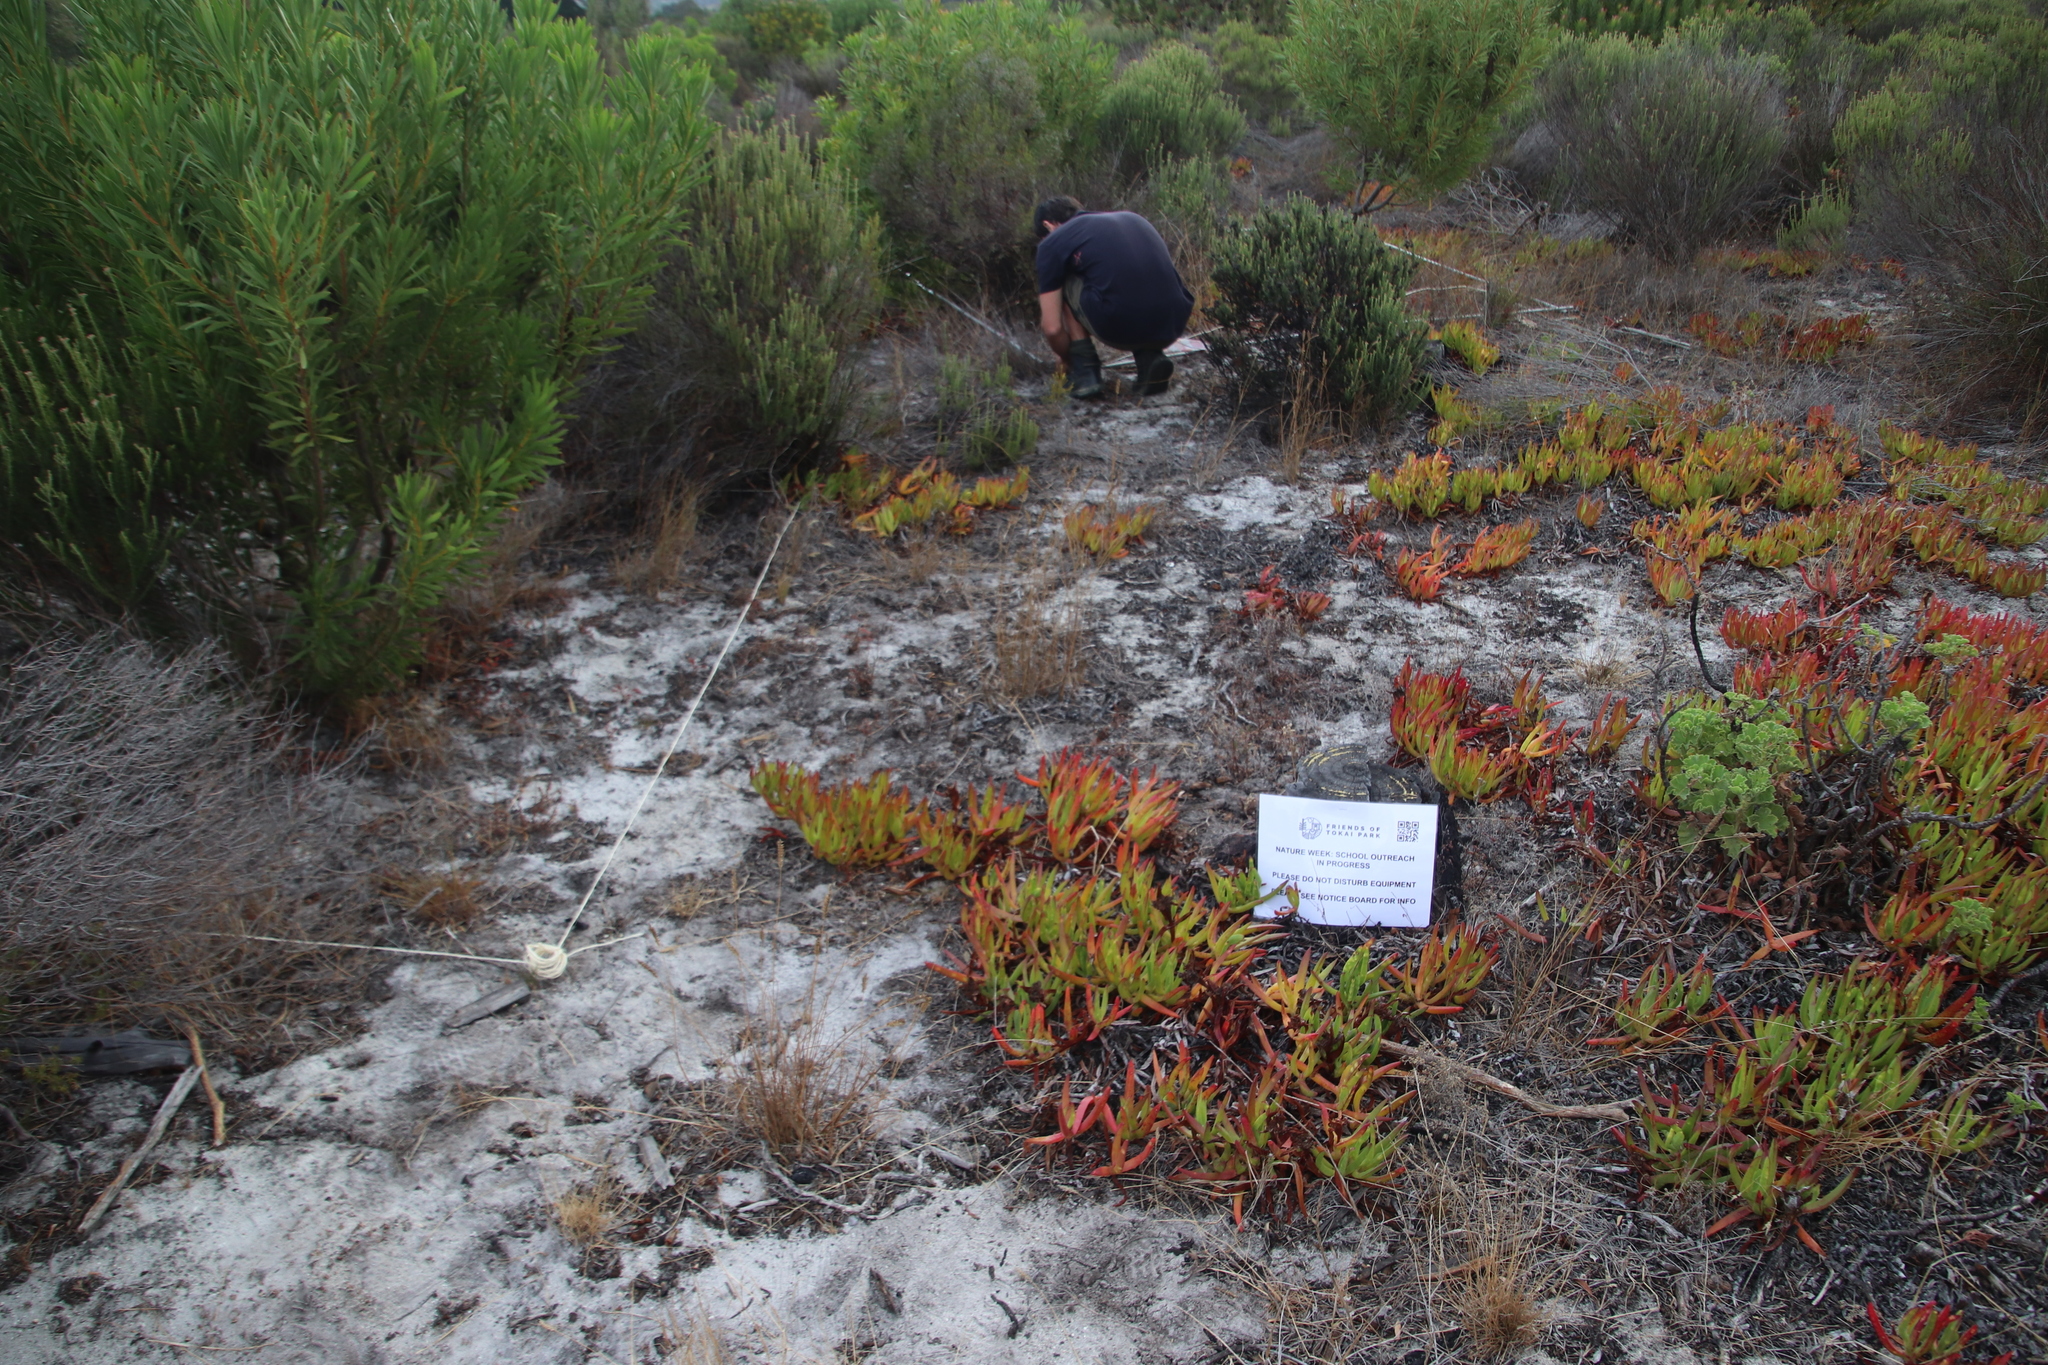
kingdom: Plantae
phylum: Tracheophyta
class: Magnoliopsida
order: Caryophyllales
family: Aizoaceae
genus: Carpobrotus
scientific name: Carpobrotus edulis
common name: Hottentot-fig
